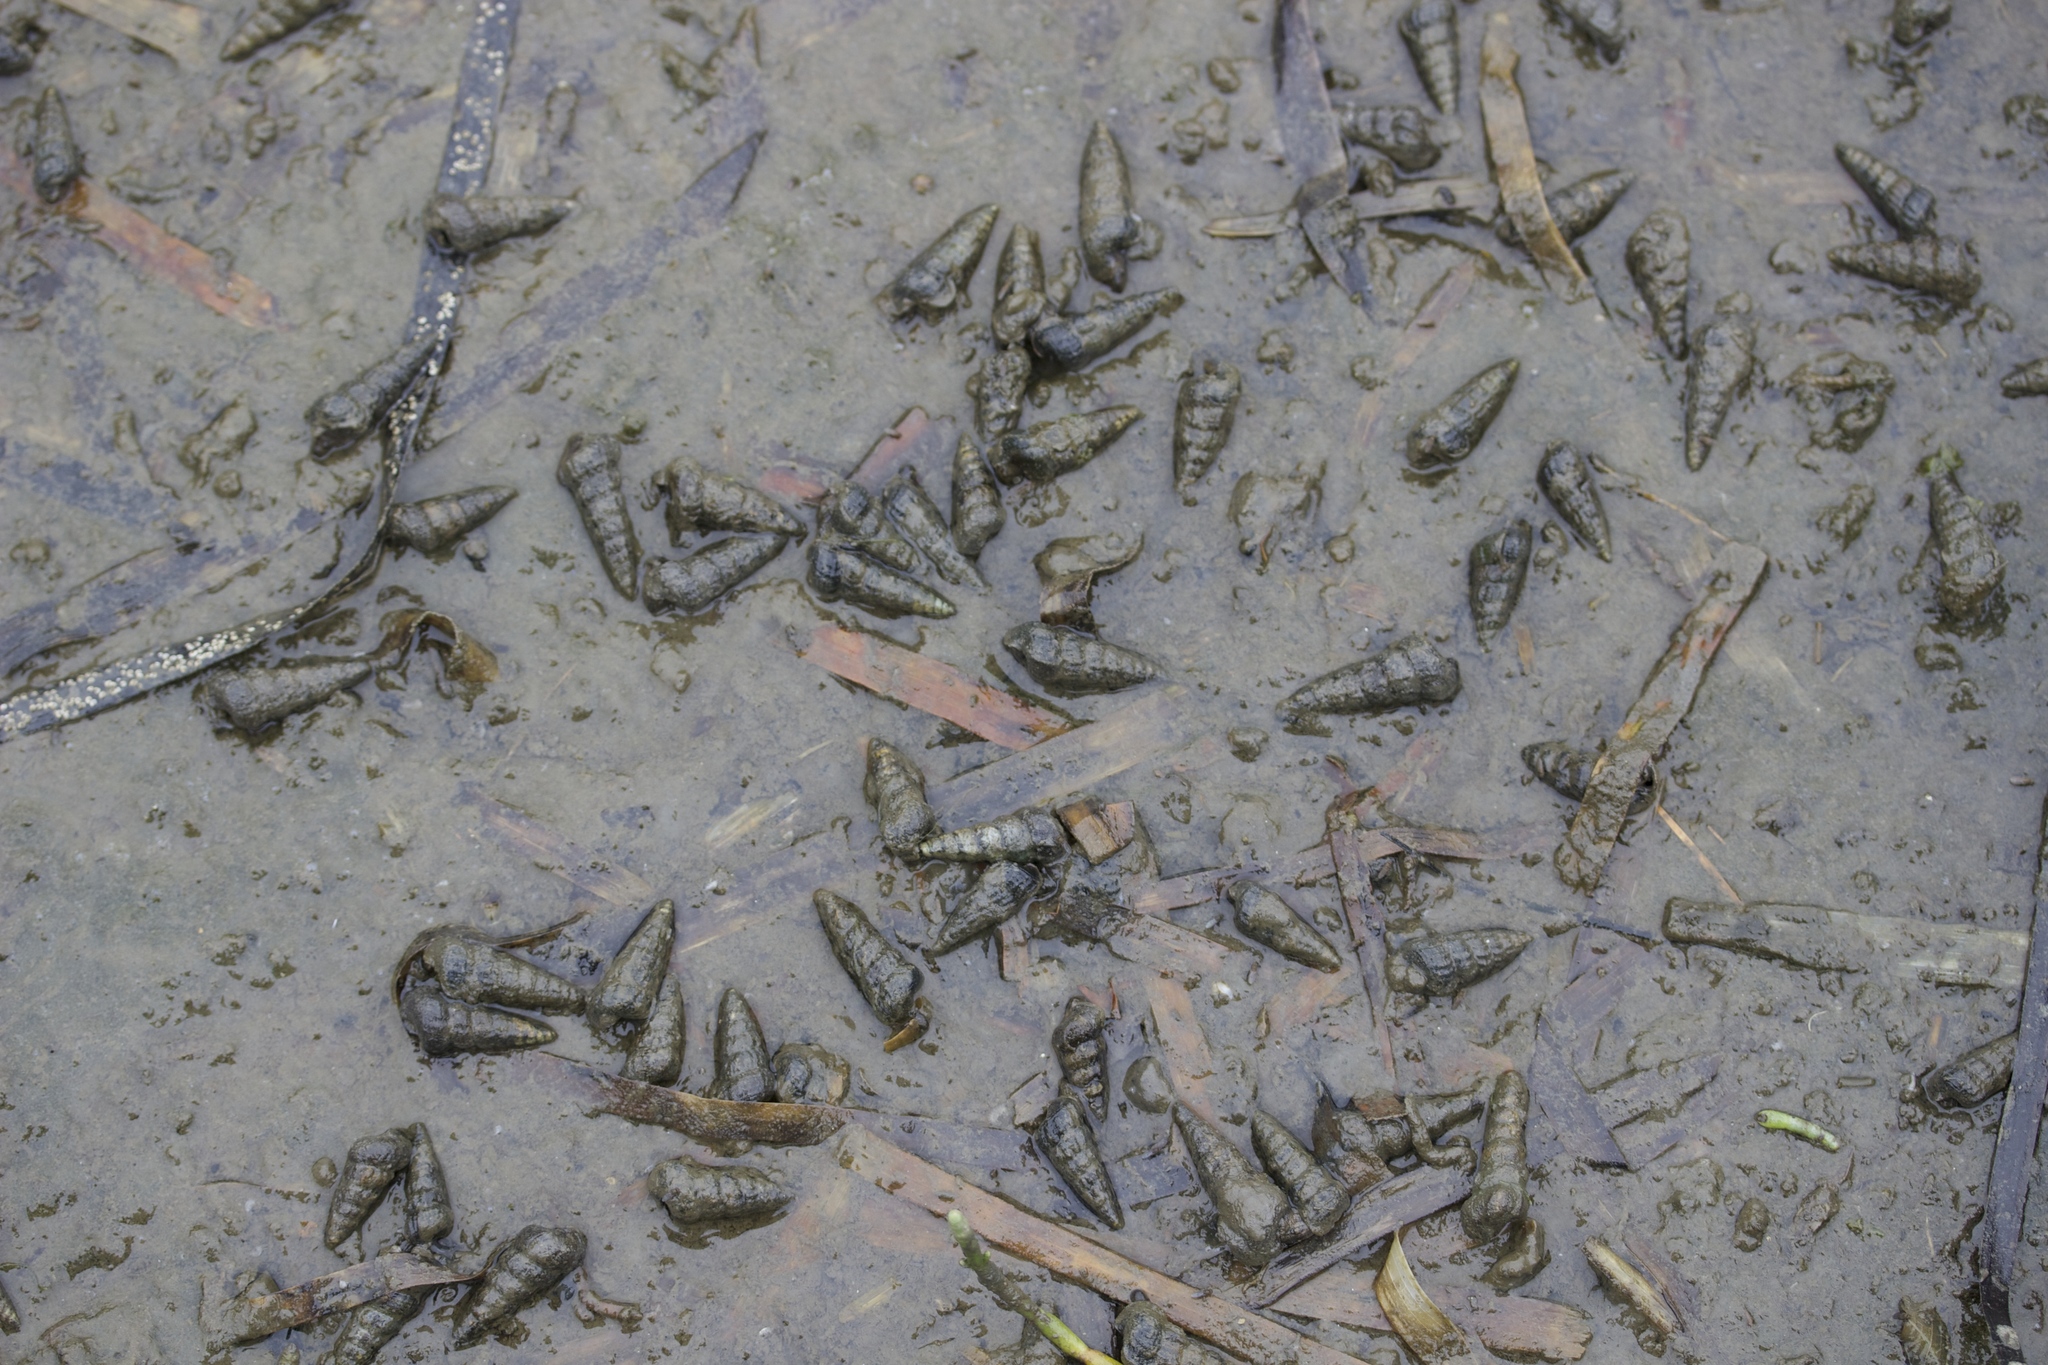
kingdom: Animalia
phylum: Mollusca
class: Gastropoda
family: Potamididae
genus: Cerithideopsis
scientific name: Cerithideopsis californica
